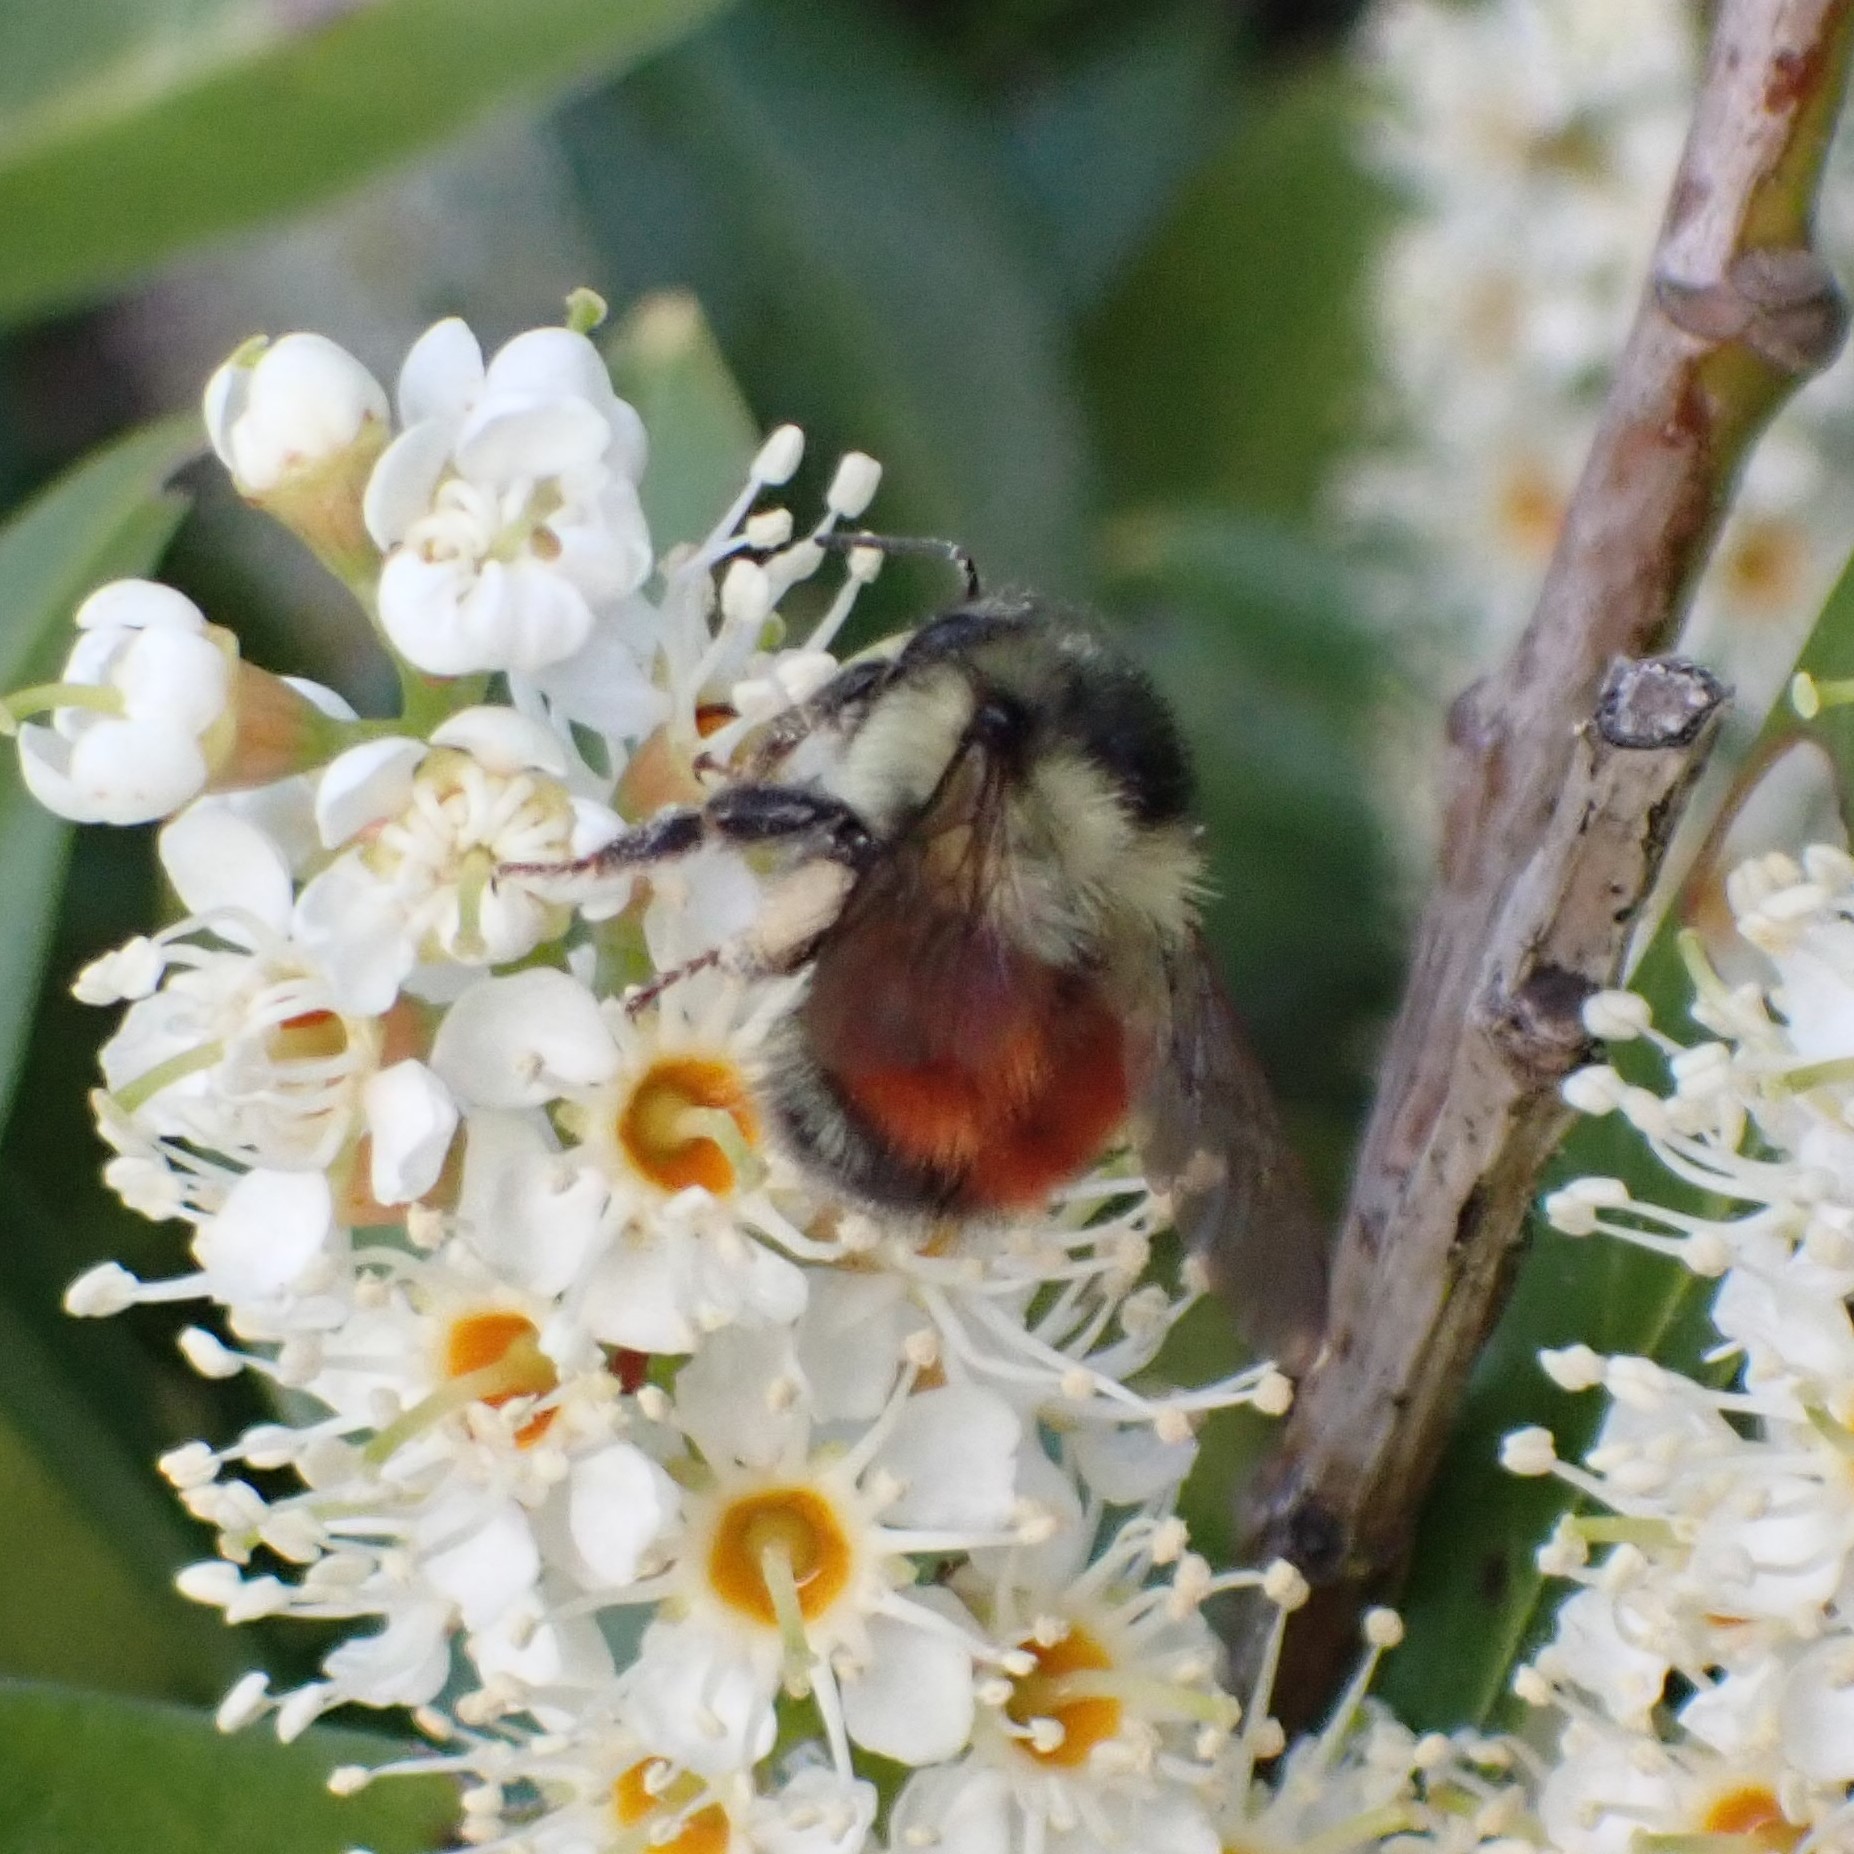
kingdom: Animalia
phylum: Arthropoda
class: Insecta
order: Hymenoptera
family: Apidae
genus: Bombus
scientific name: Bombus melanopygus
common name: Black tail bumble bee
